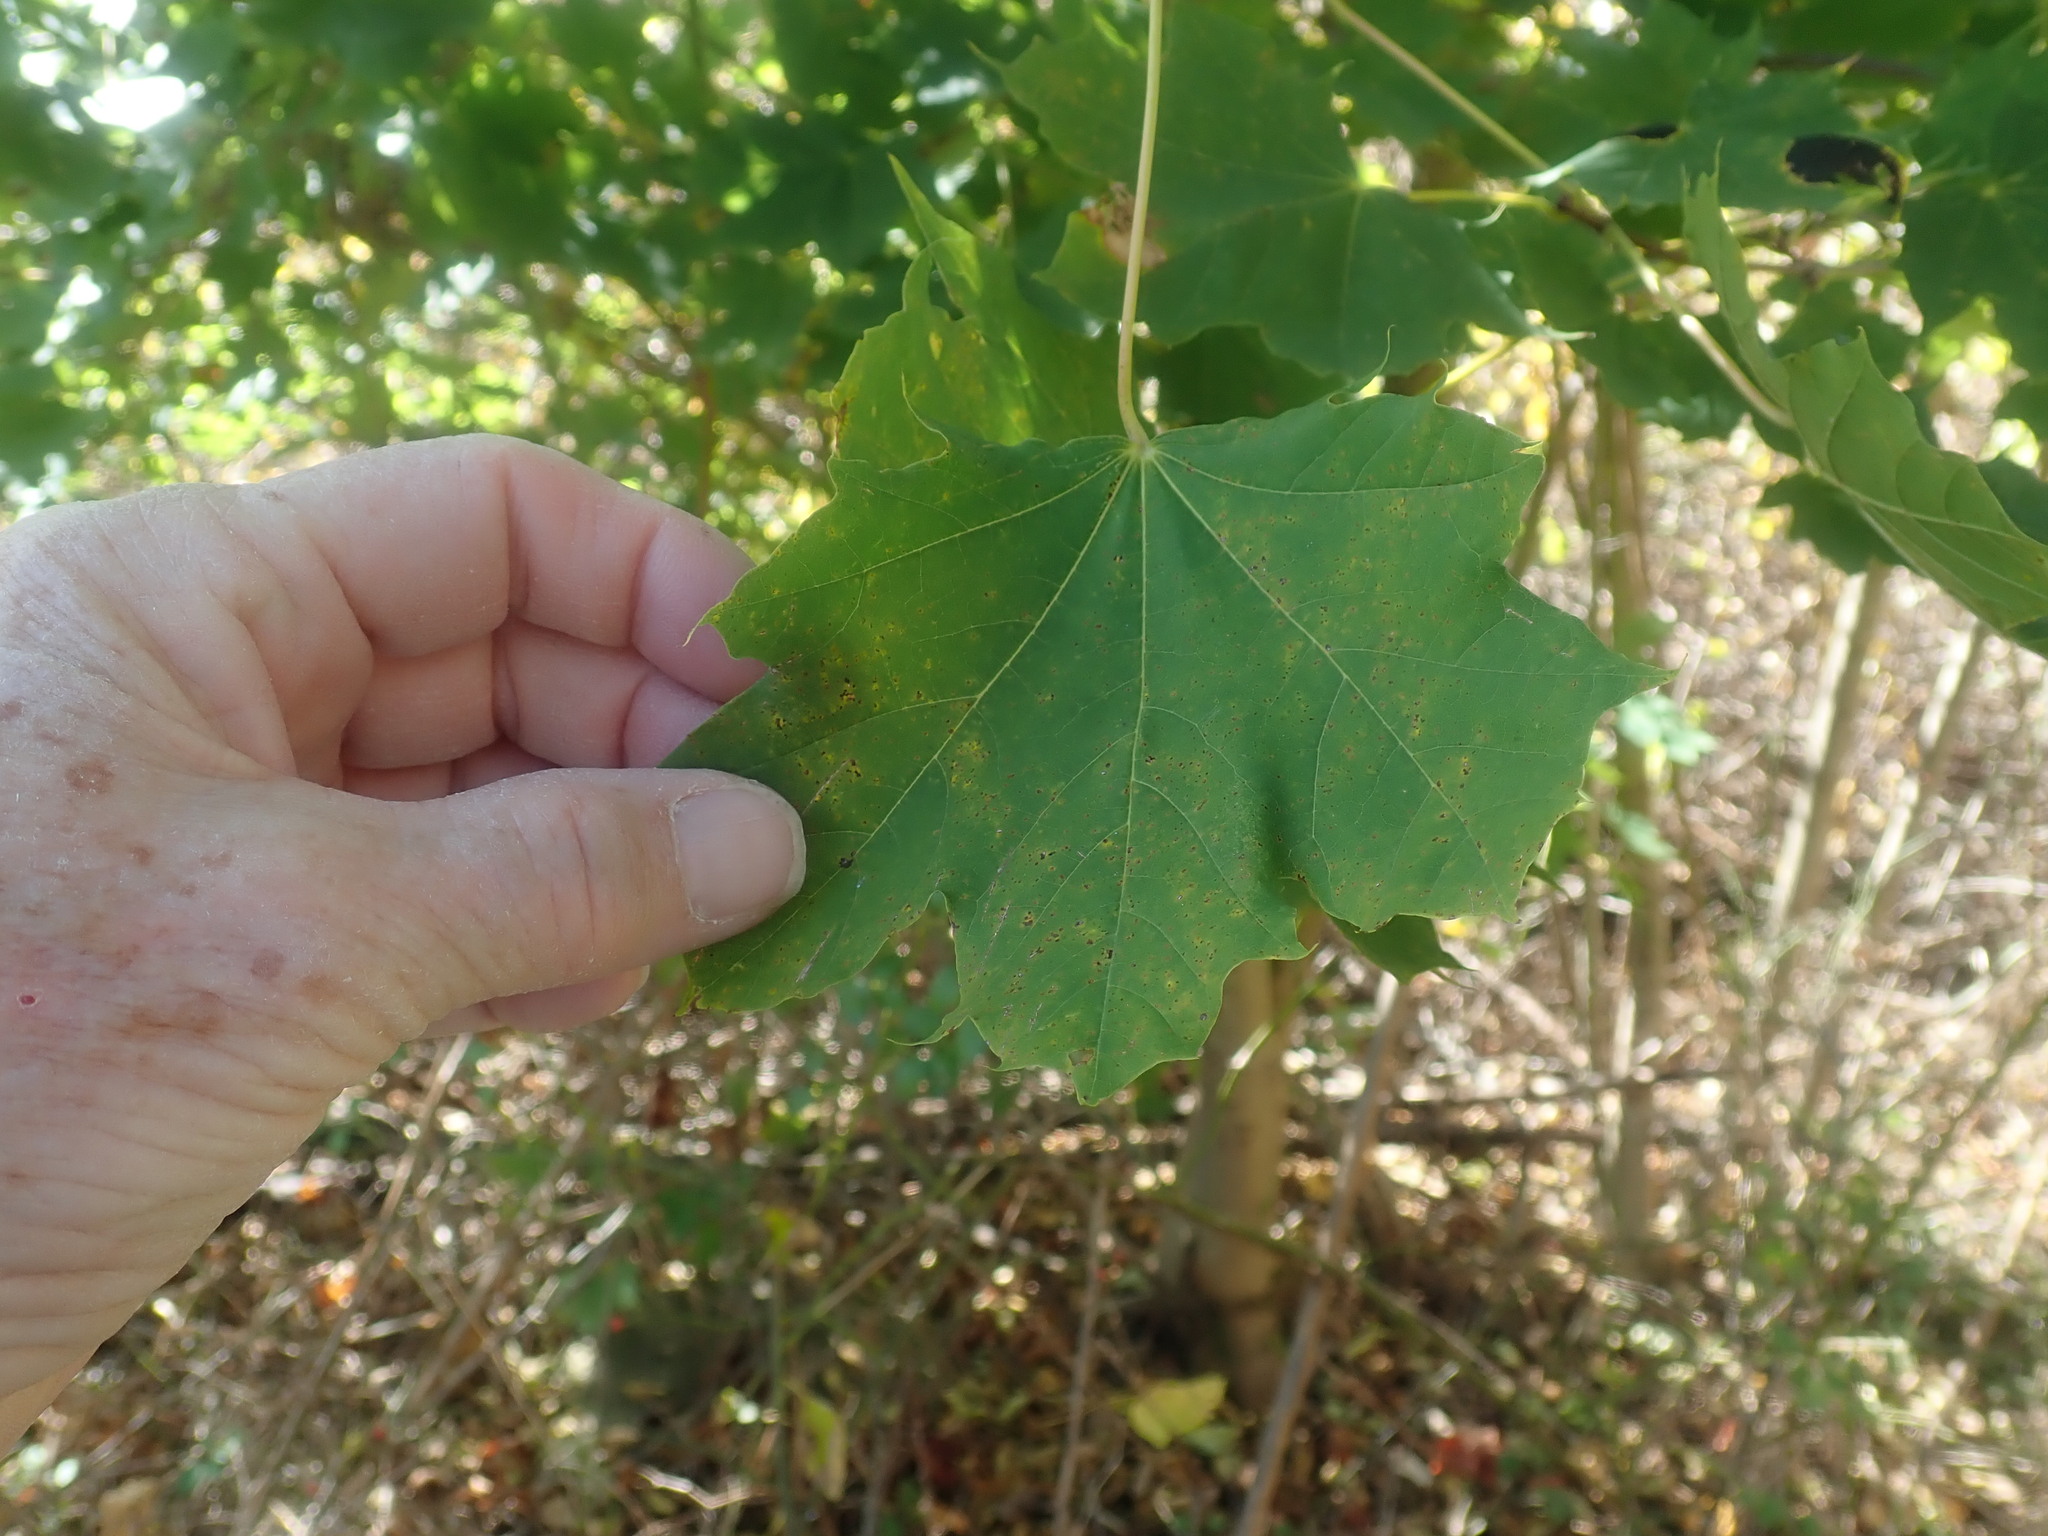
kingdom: Plantae
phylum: Tracheophyta
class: Magnoliopsida
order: Sapindales
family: Sapindaceae
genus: Acer
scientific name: Acer platanoides
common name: Norway maple
